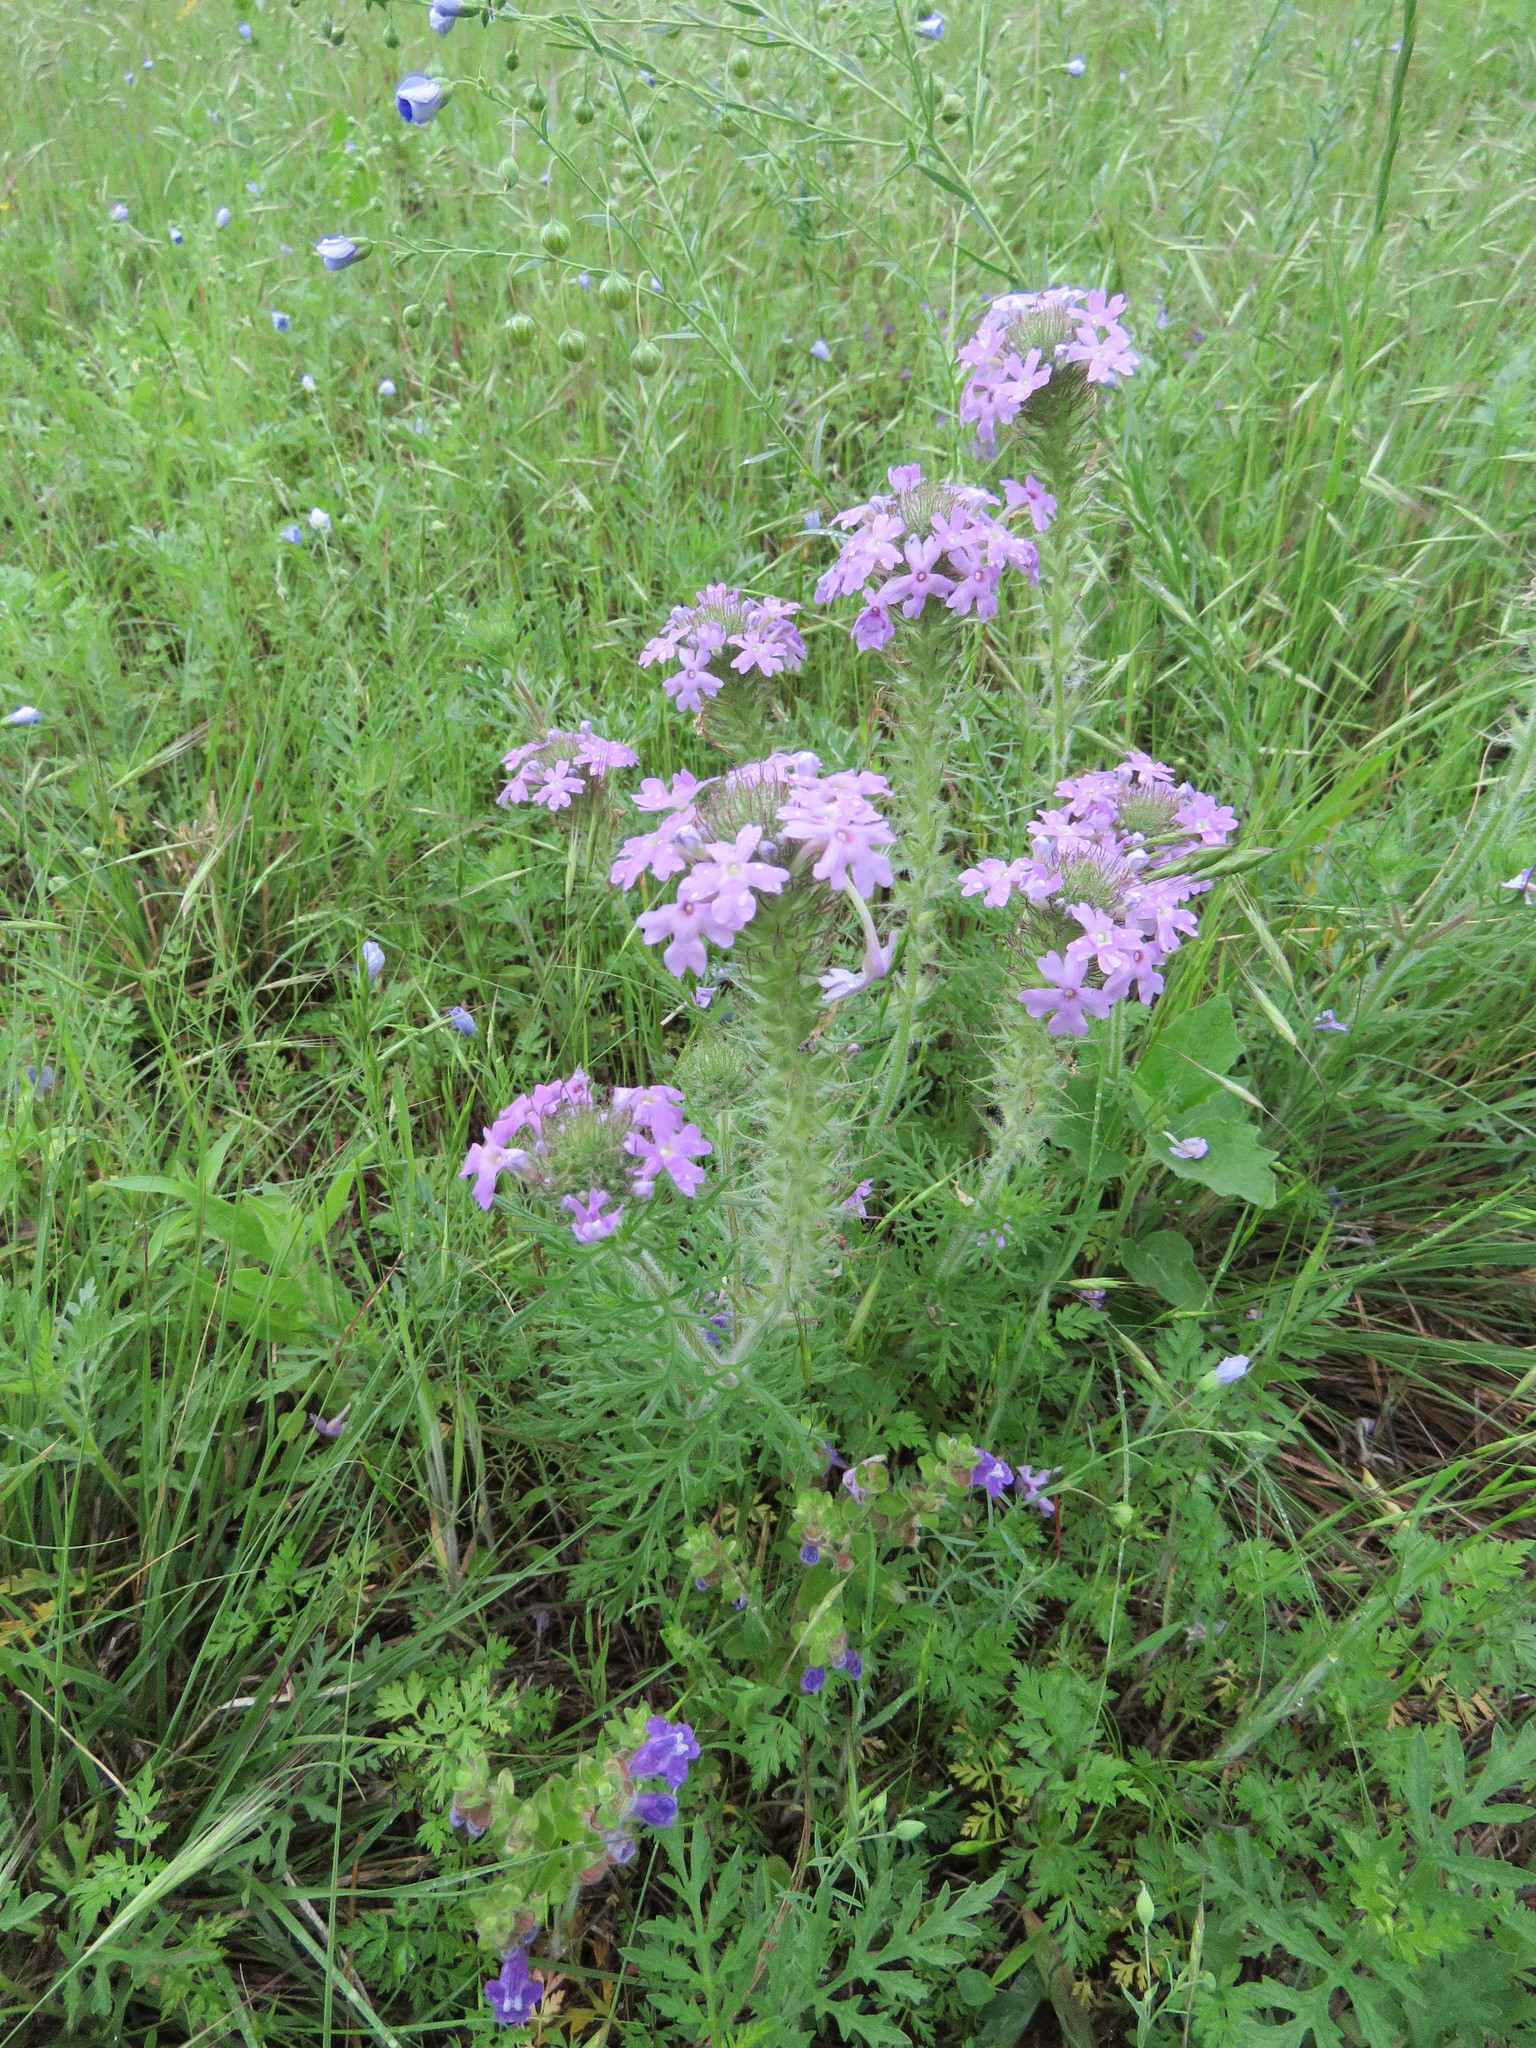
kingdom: Plantae
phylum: Tracheophyta
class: Magnoliopsida
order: Lamiales
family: Verbenaceae
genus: Verbena
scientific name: Verbena bipinnatifida
